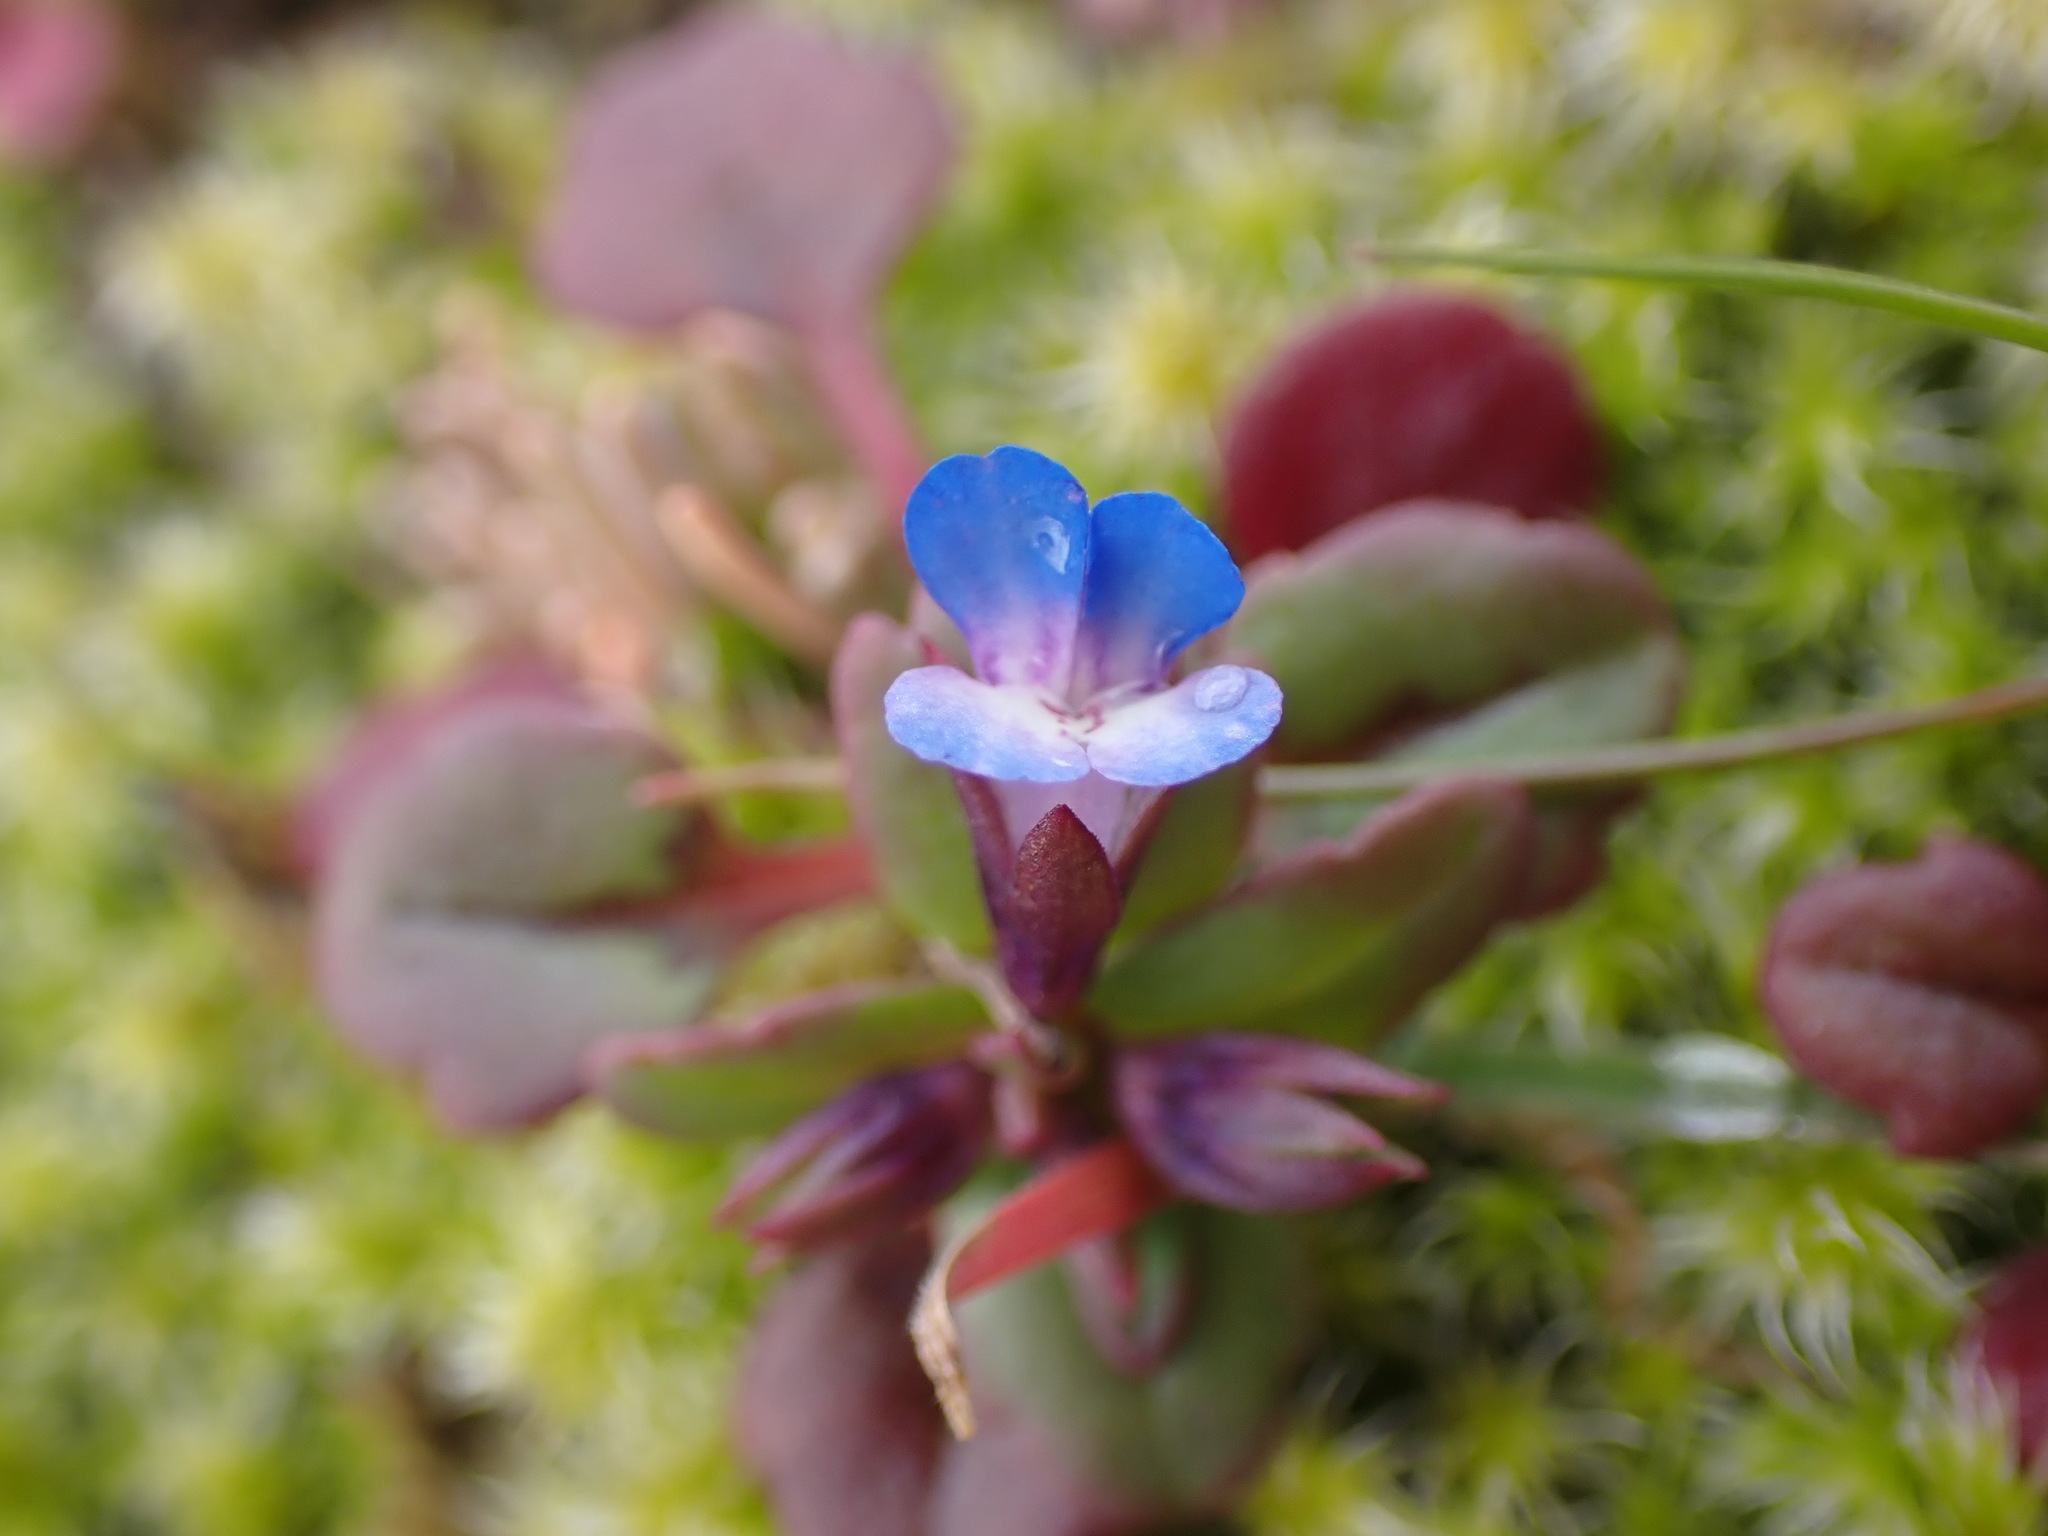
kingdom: Plantae
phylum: Tracheophyta
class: Magnoliopsida
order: Lamiales
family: Plantaginaceae
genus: Collinsia
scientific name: Collinsia parviflora
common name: Blue-lips
